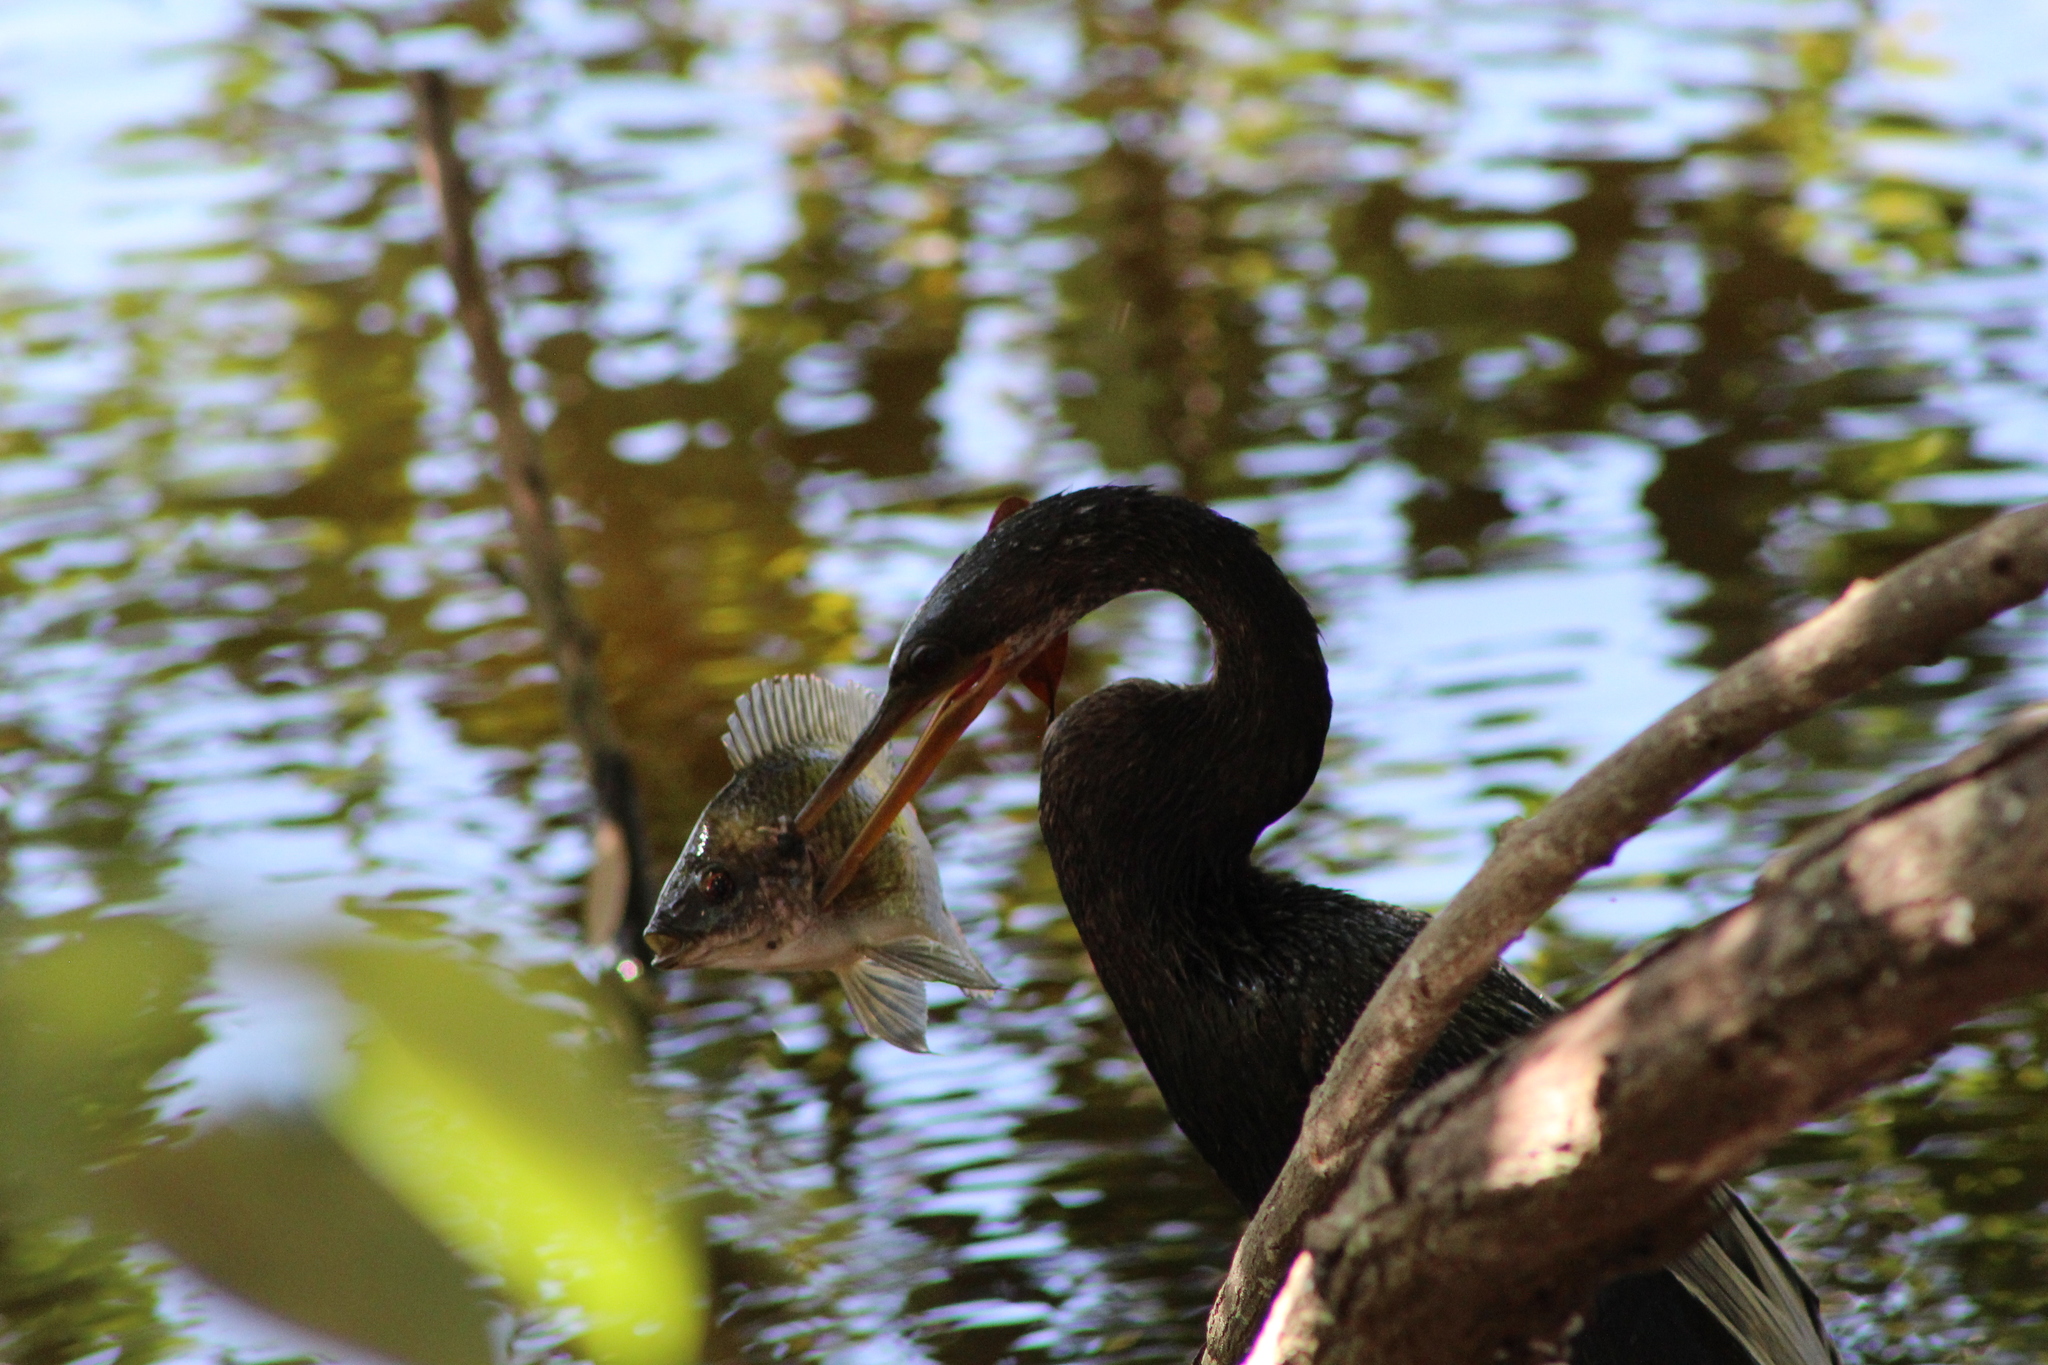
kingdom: Animalia
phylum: Chordata
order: Perciformes
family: Cichlidae
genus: Oreochromis
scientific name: Oreochromis niloticus
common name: Nile tilapia
